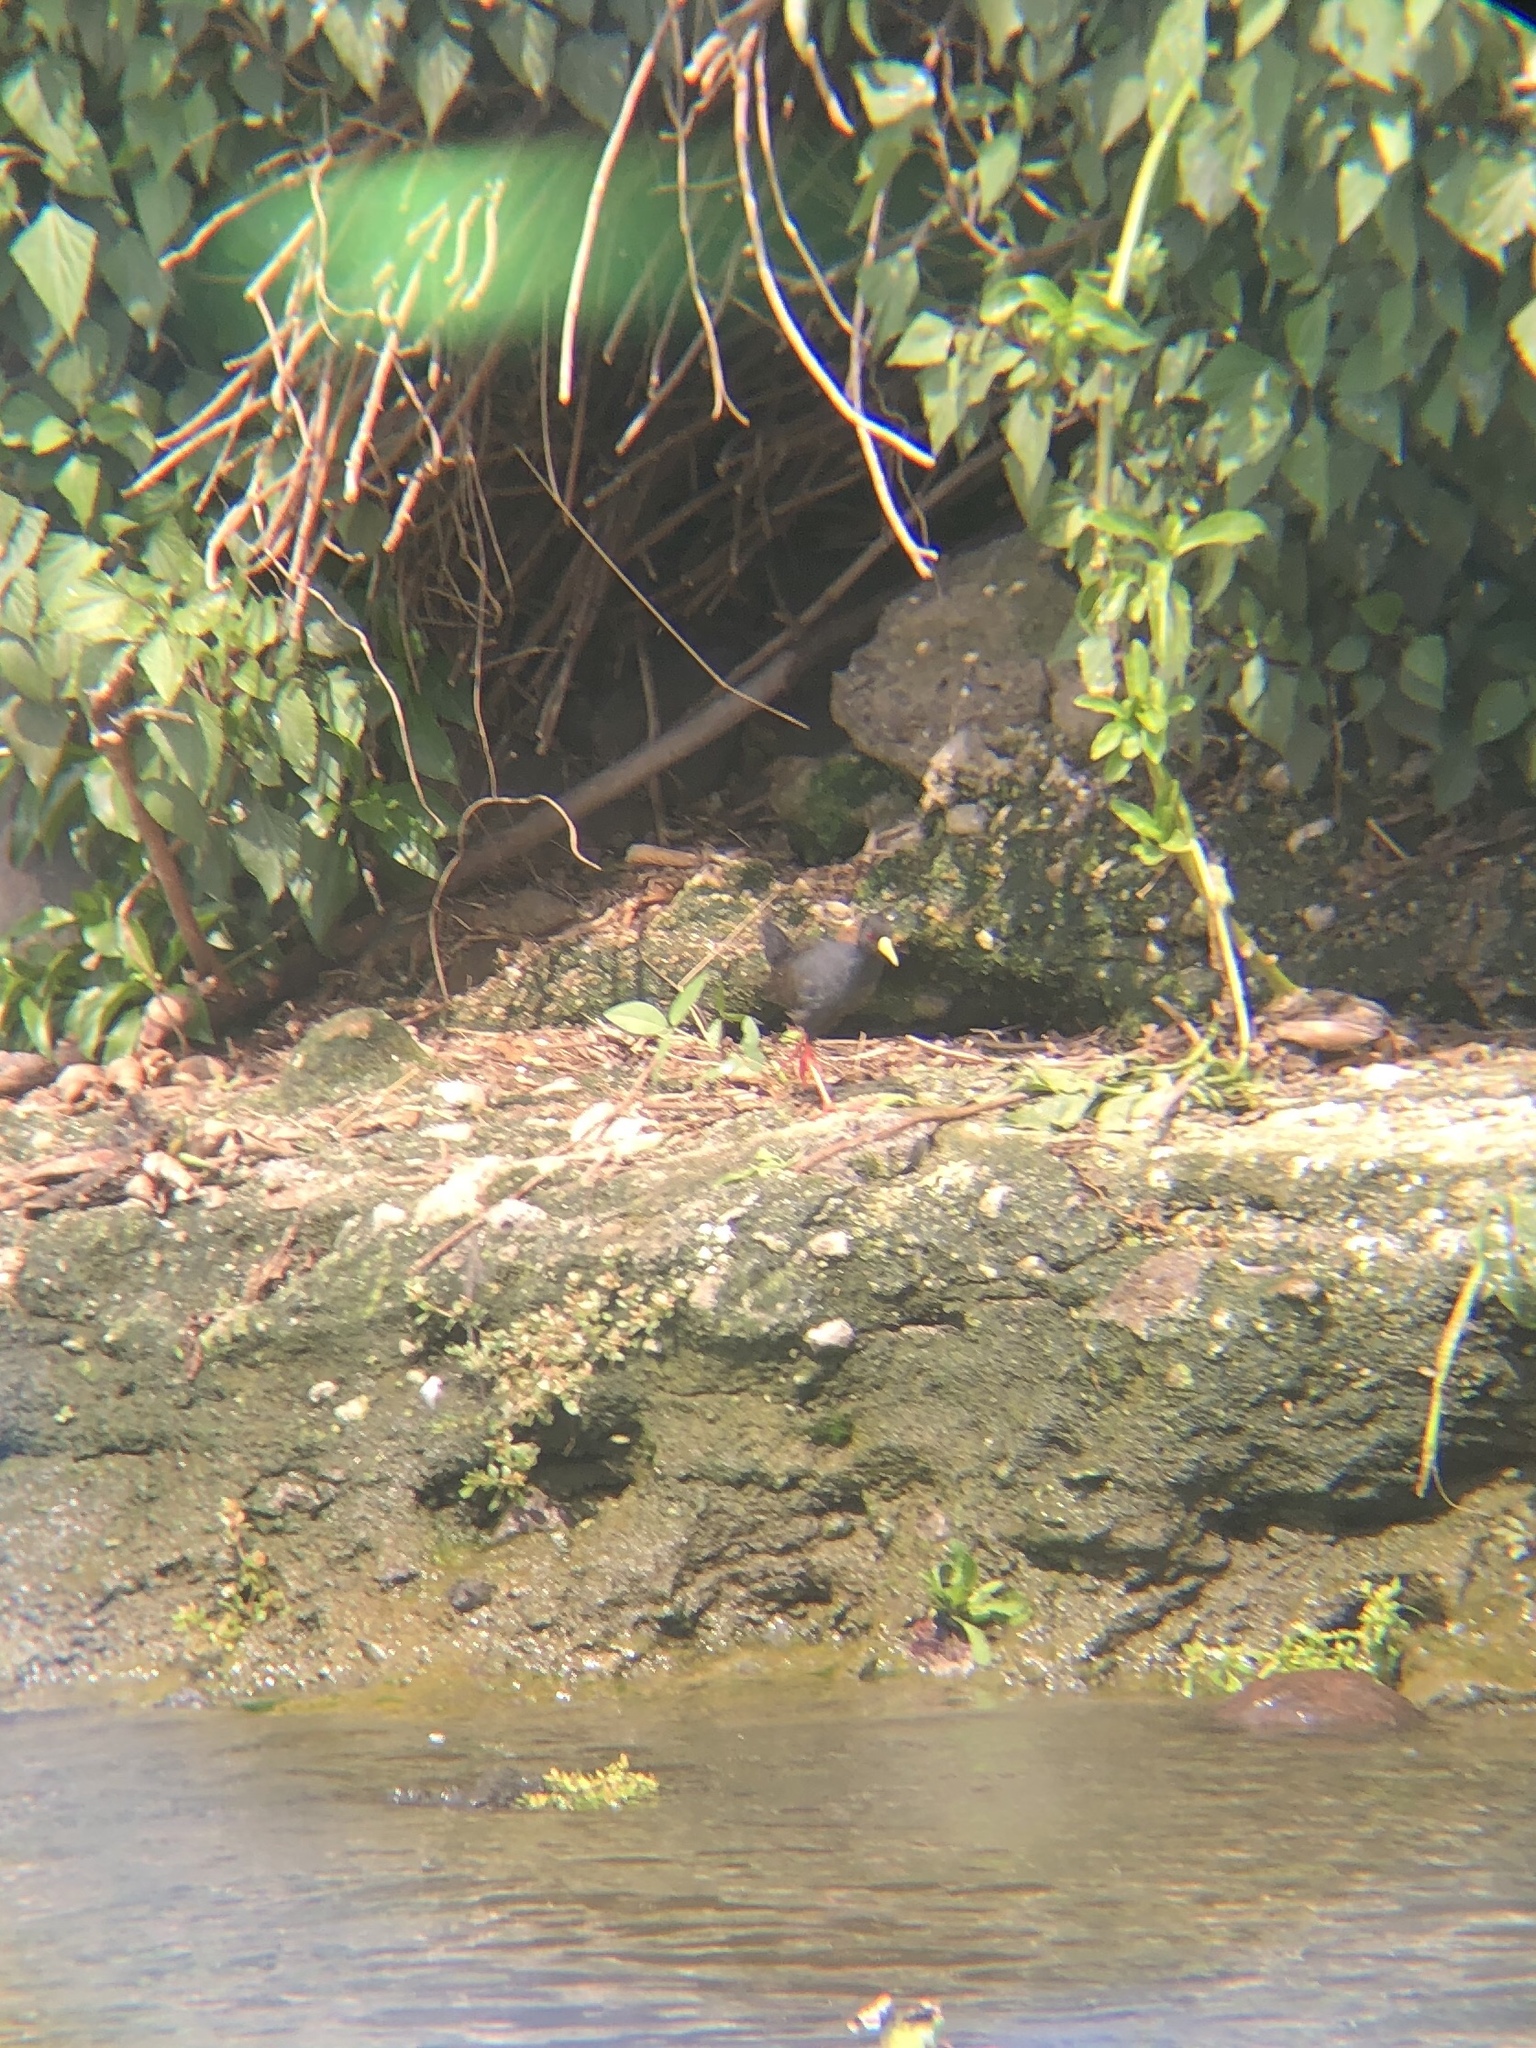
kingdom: Animalia
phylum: Chordata
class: Aves
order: Gruiformes
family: Rallidae
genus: Amaurornis
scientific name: Amaurornis flavirostra
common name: Black crake
